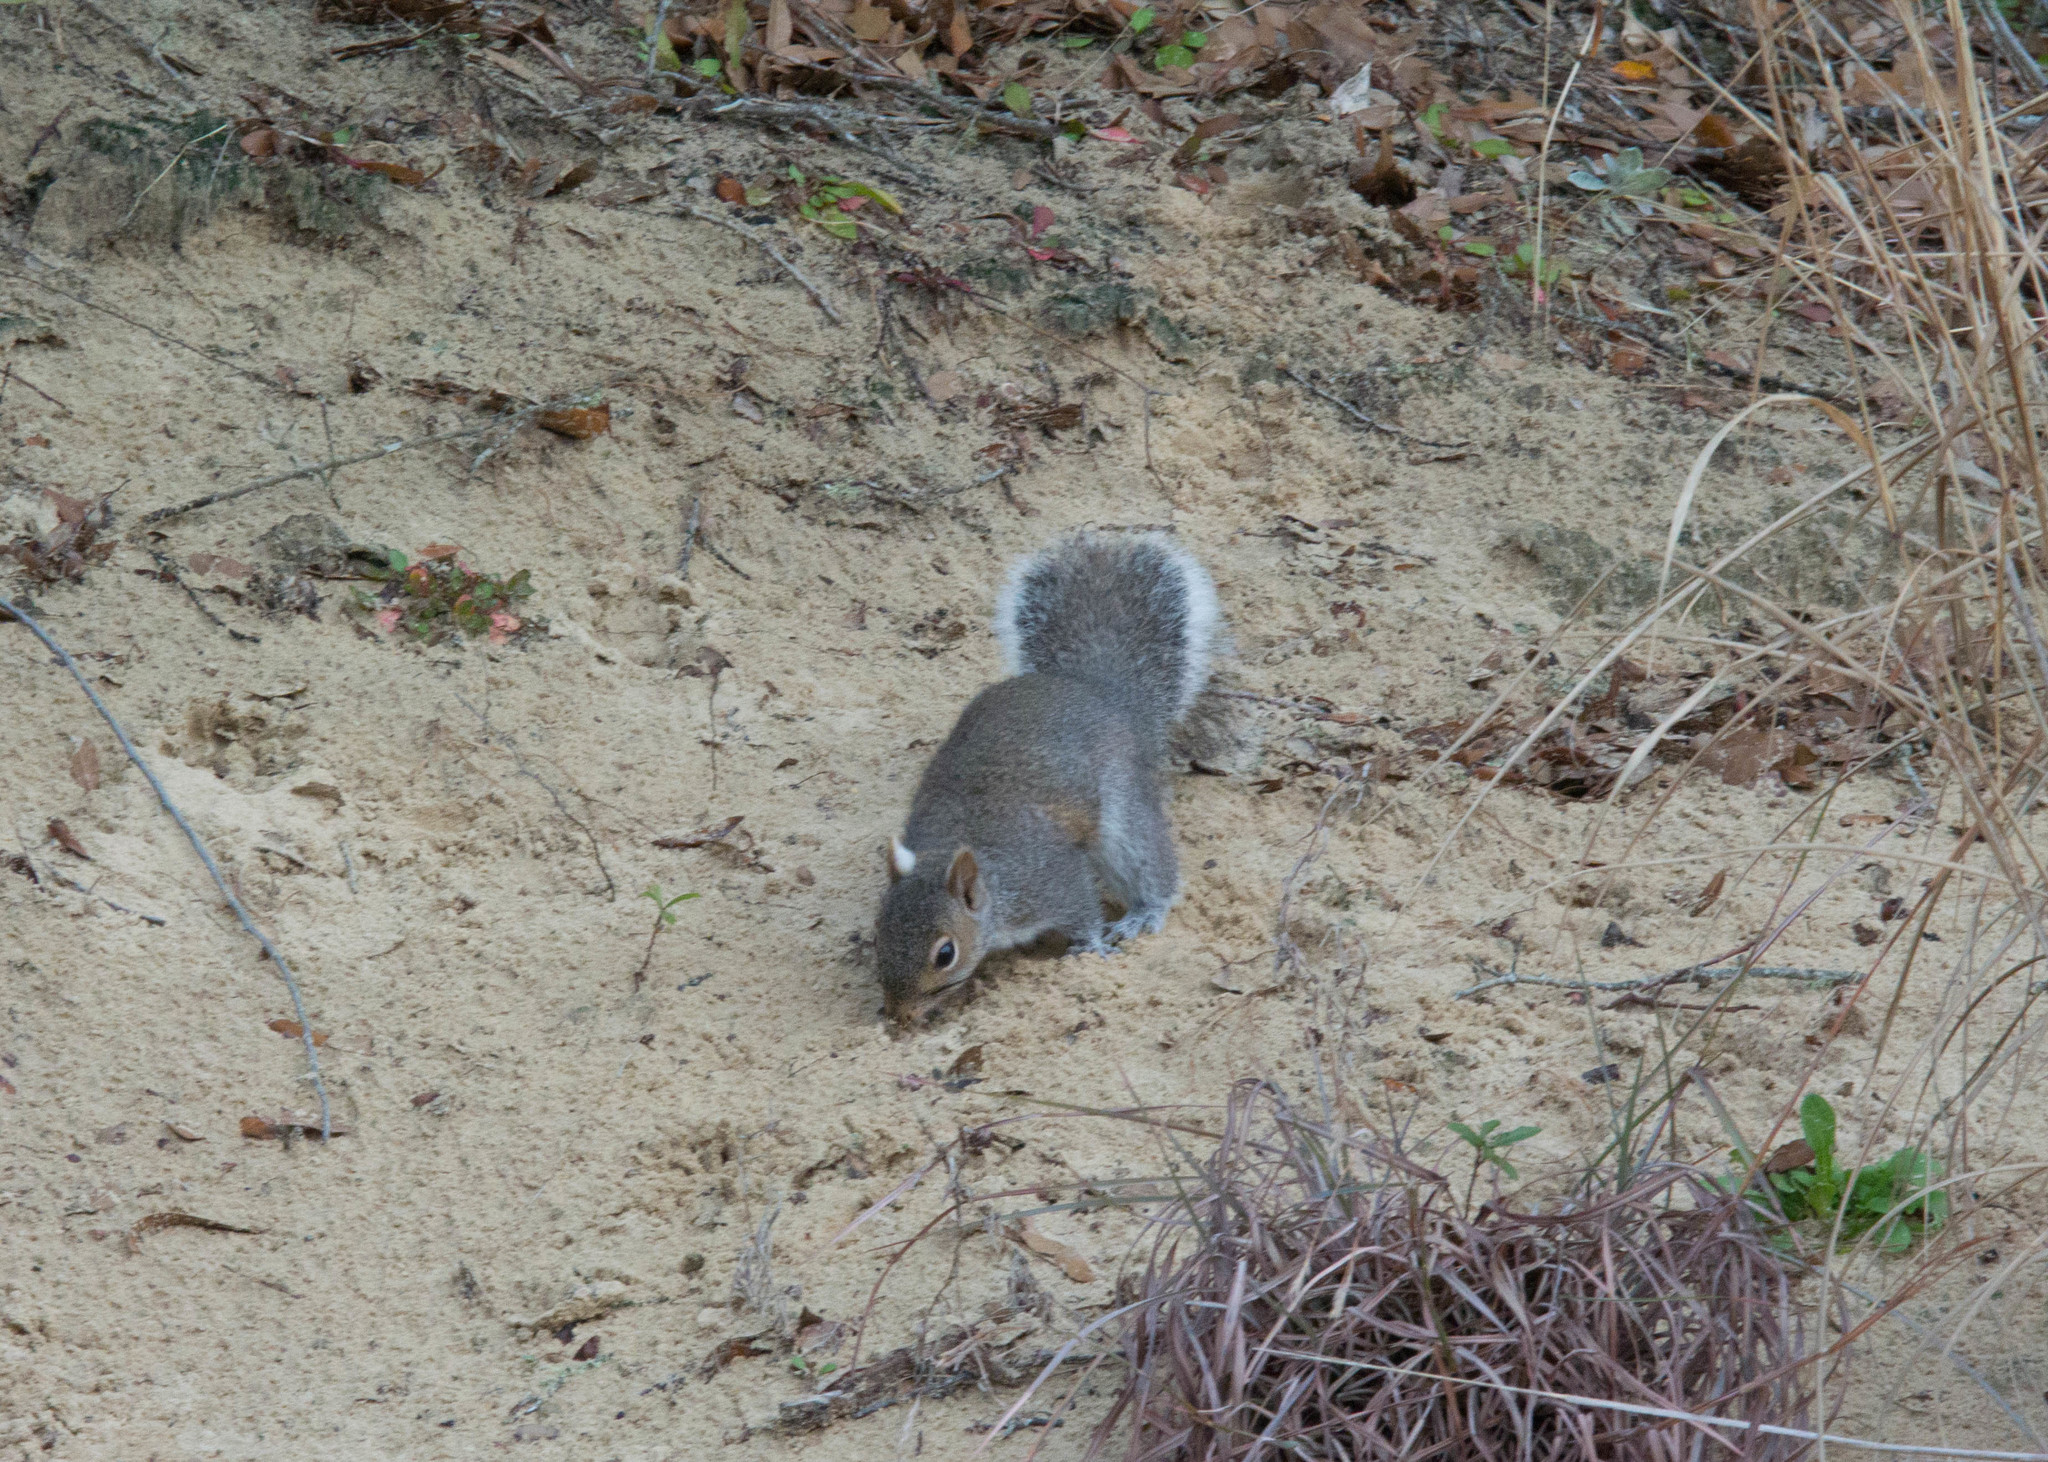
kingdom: Animalia
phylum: Chordata
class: Mammalia
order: Rodentia
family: Sciuridae
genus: Sciurus
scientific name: Sciurus carolinensis
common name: Eastern gray squirrel
